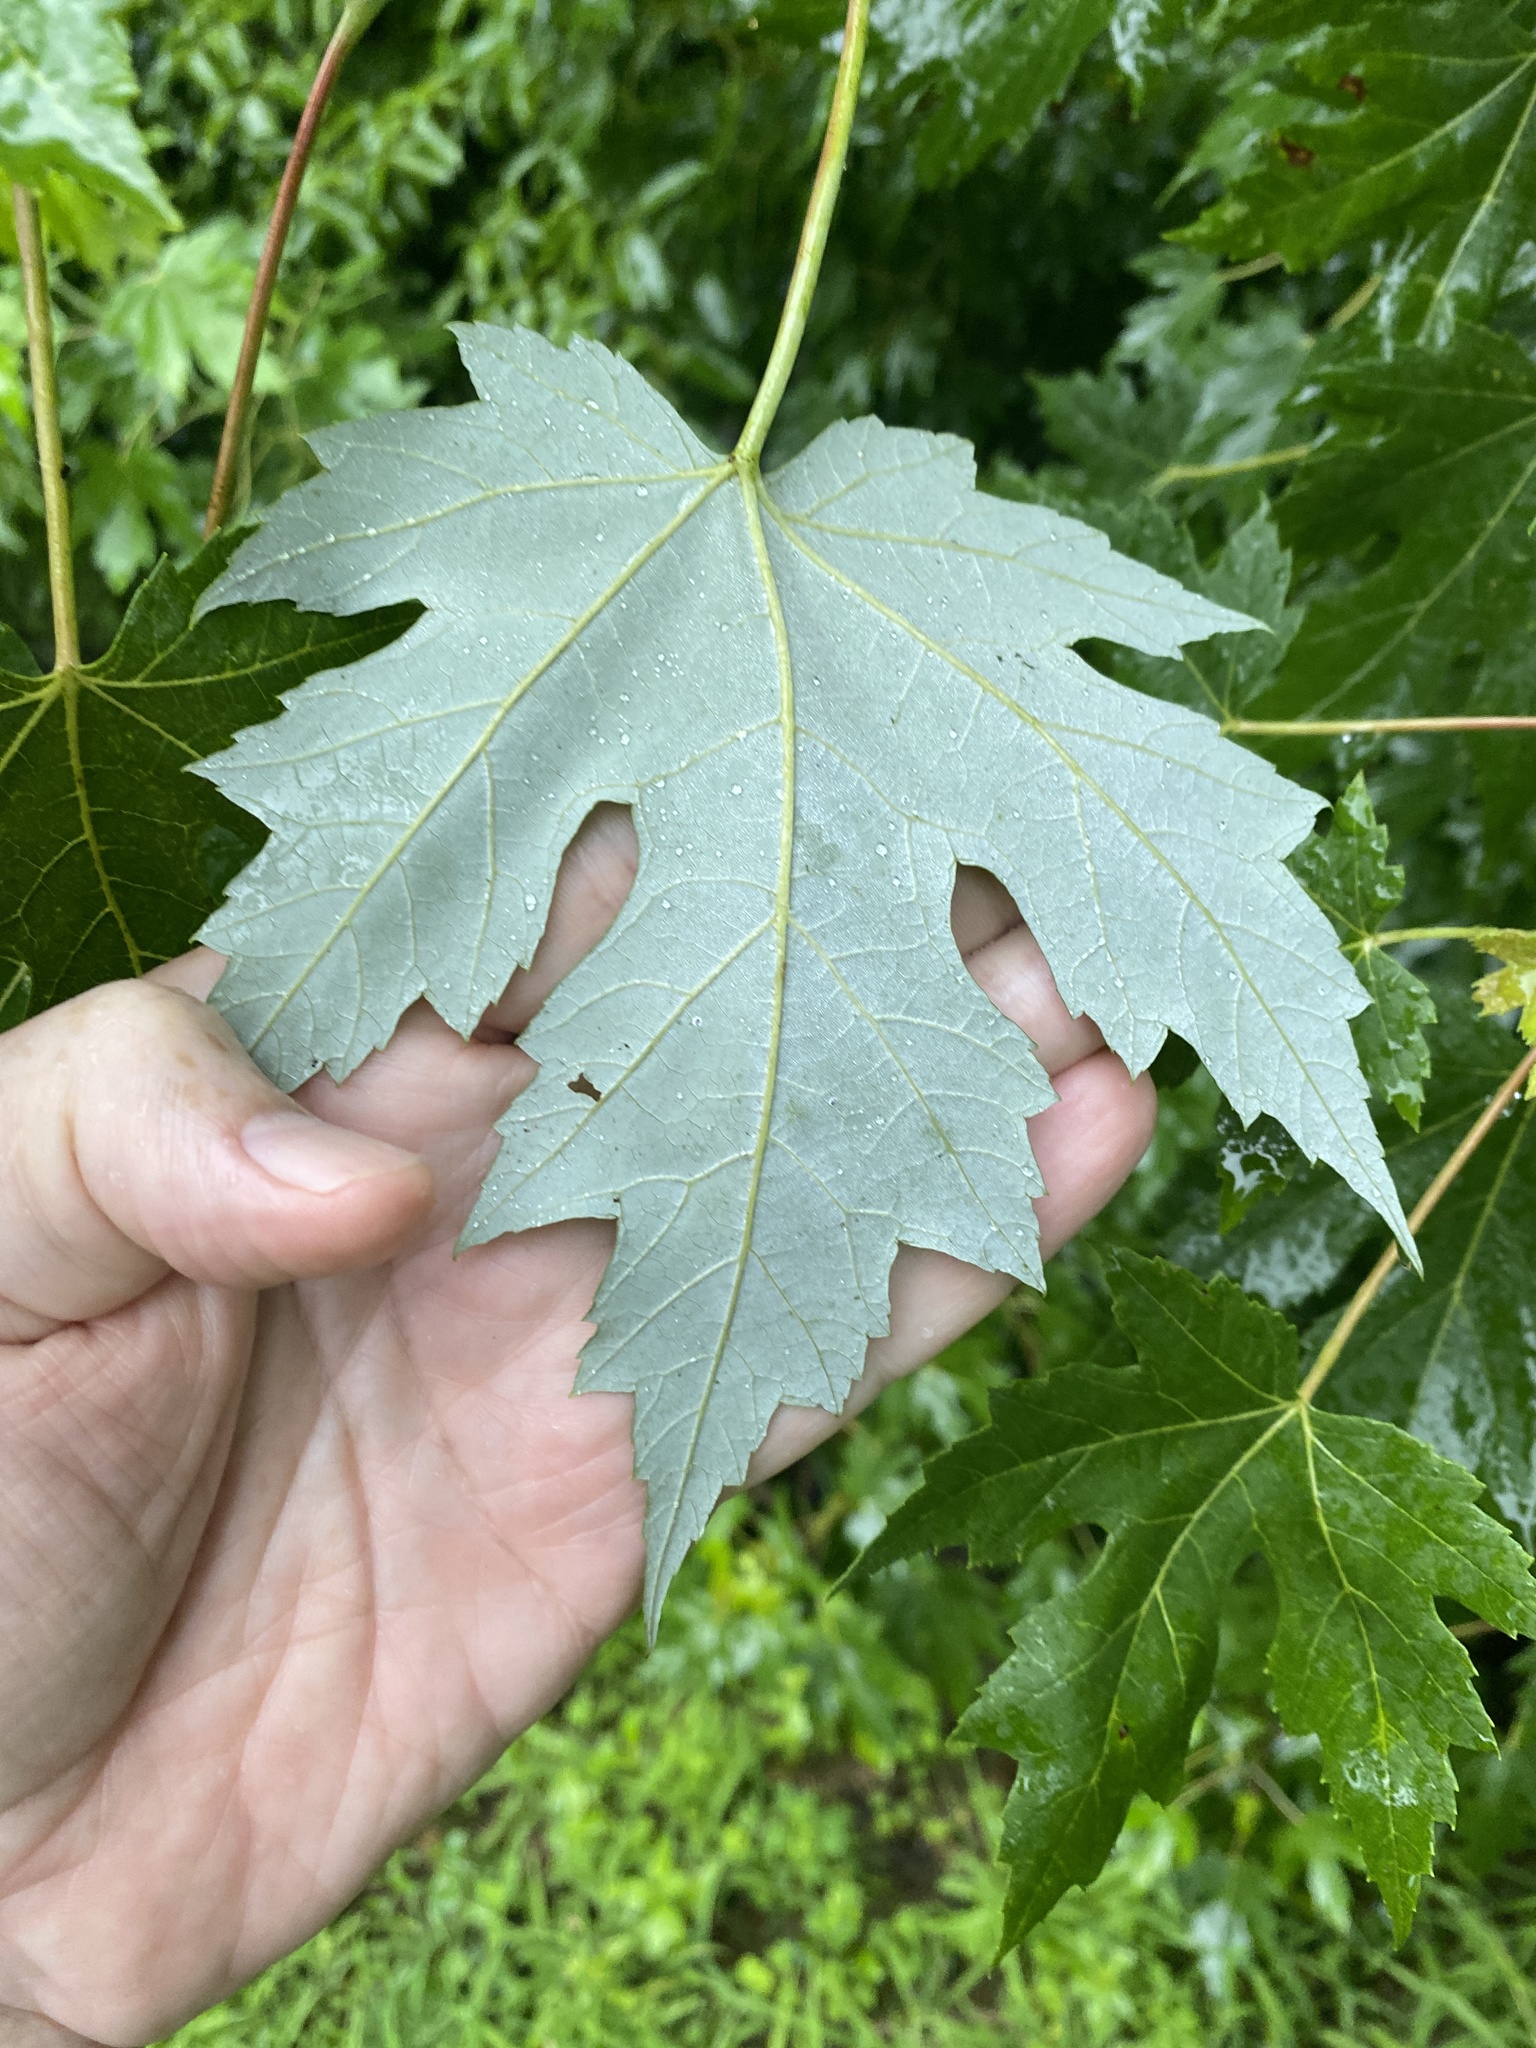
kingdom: Plantae
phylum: Tracheophyta
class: Magnoliopsida
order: Sapindales
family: Sapindaceae
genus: Acer
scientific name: Acer saccharinum
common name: Silver maple
